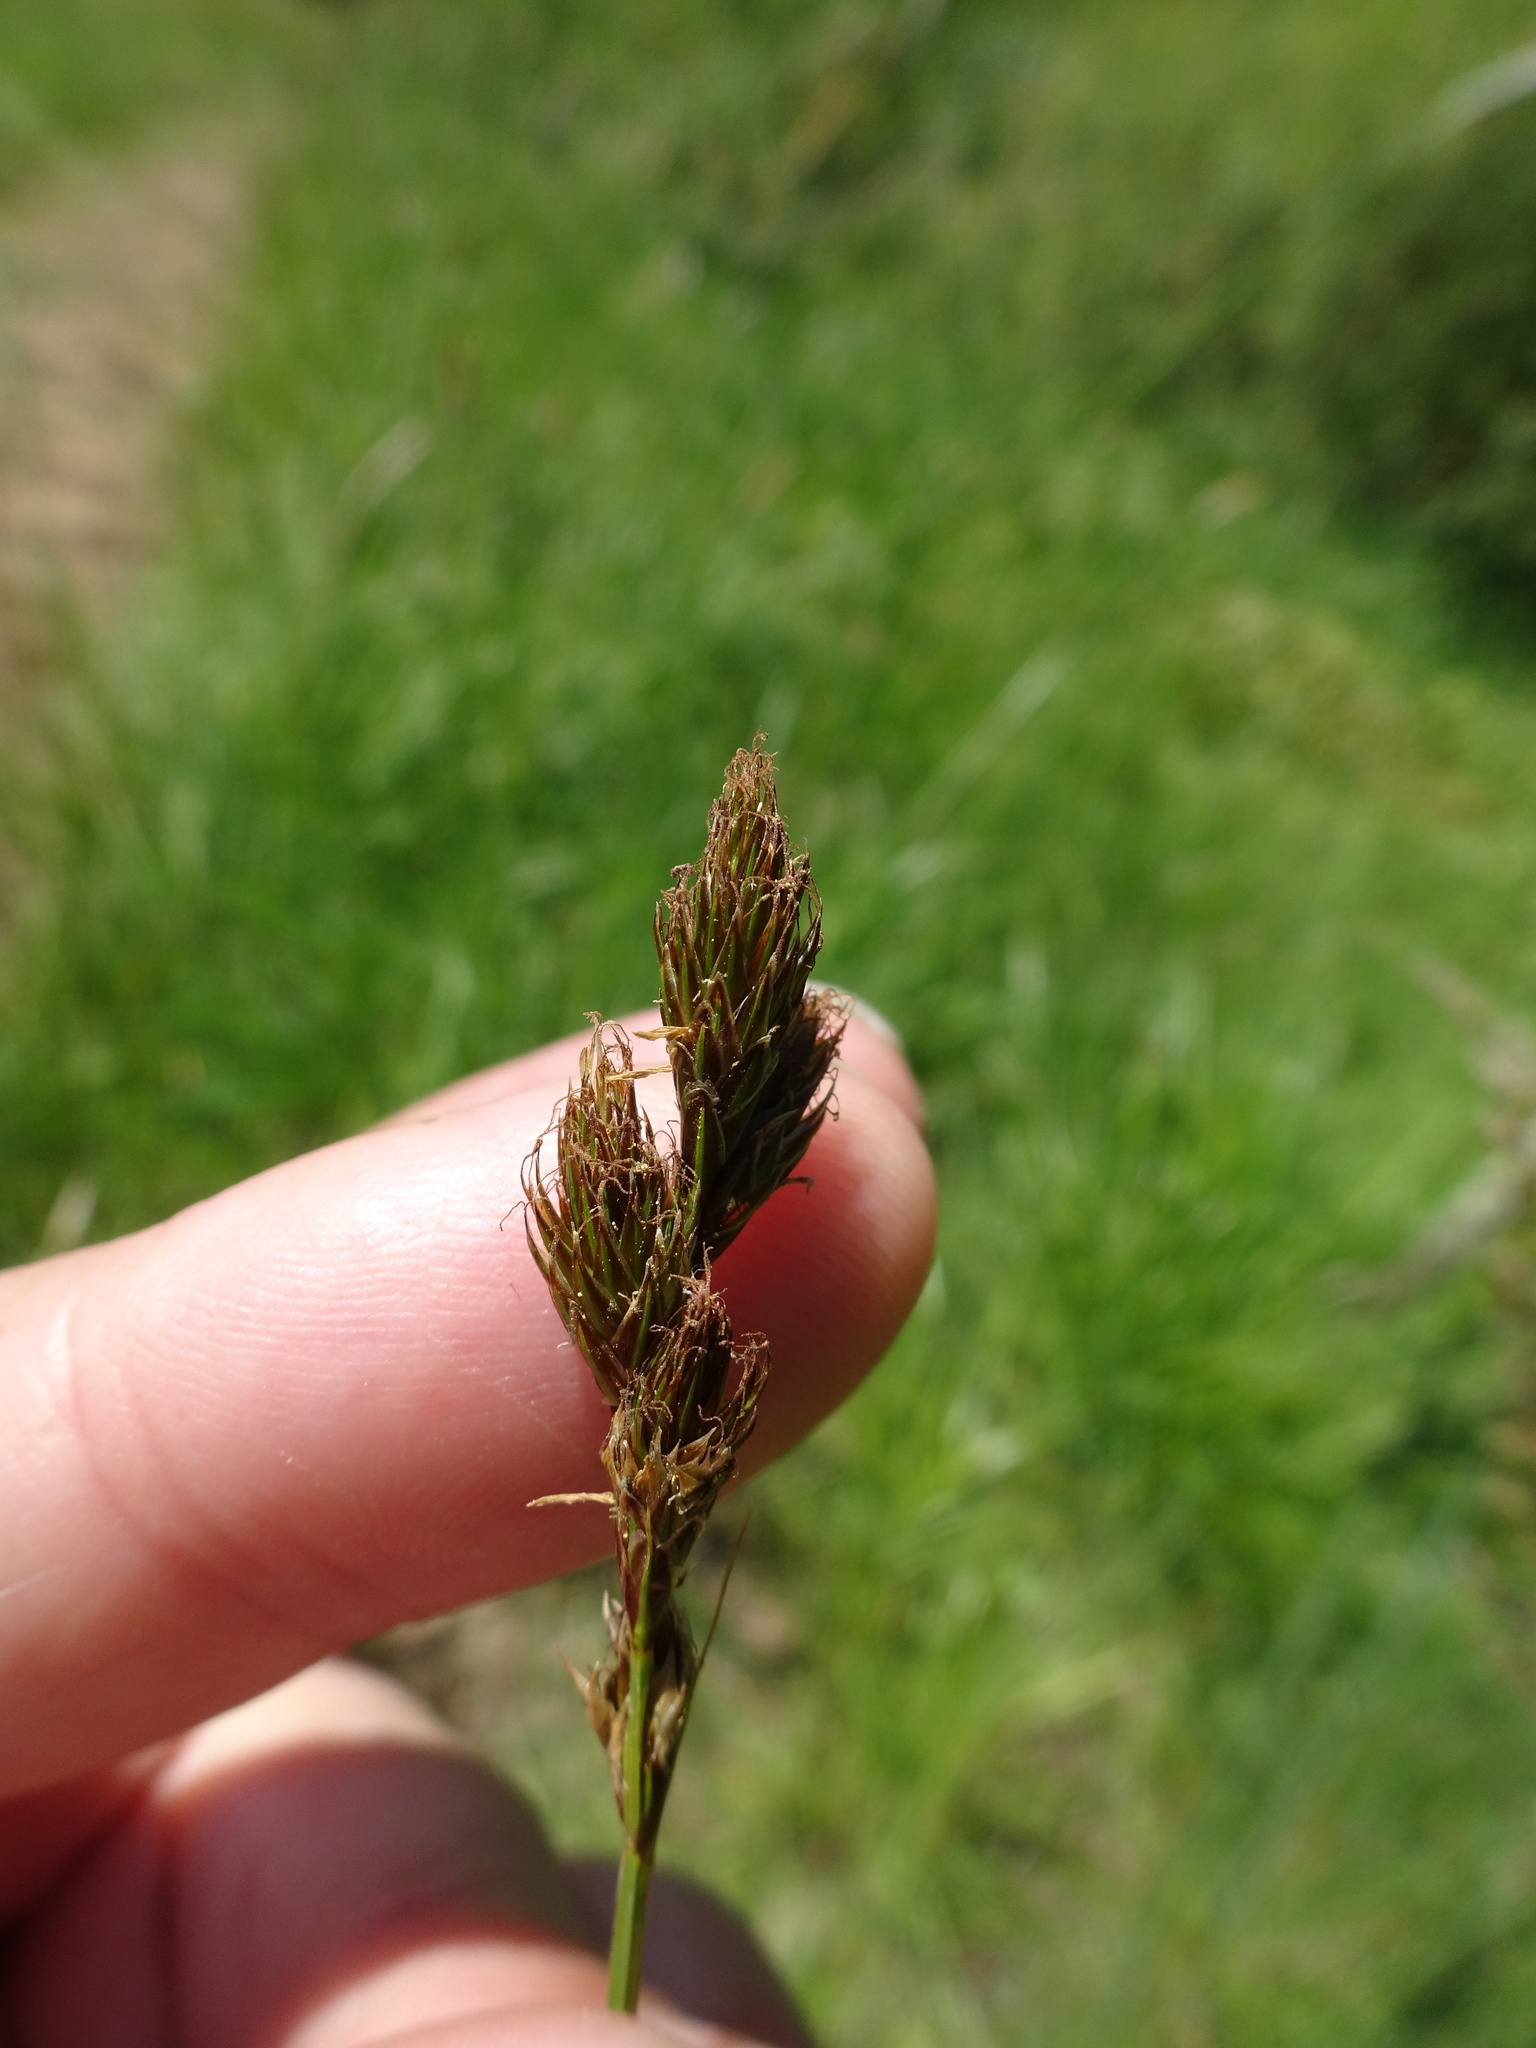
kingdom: Plantae
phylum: Tracheophyta
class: Liliopsida
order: Poales
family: Cyperaceae
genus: Carex
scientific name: Carex leporina
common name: Oval sedge
